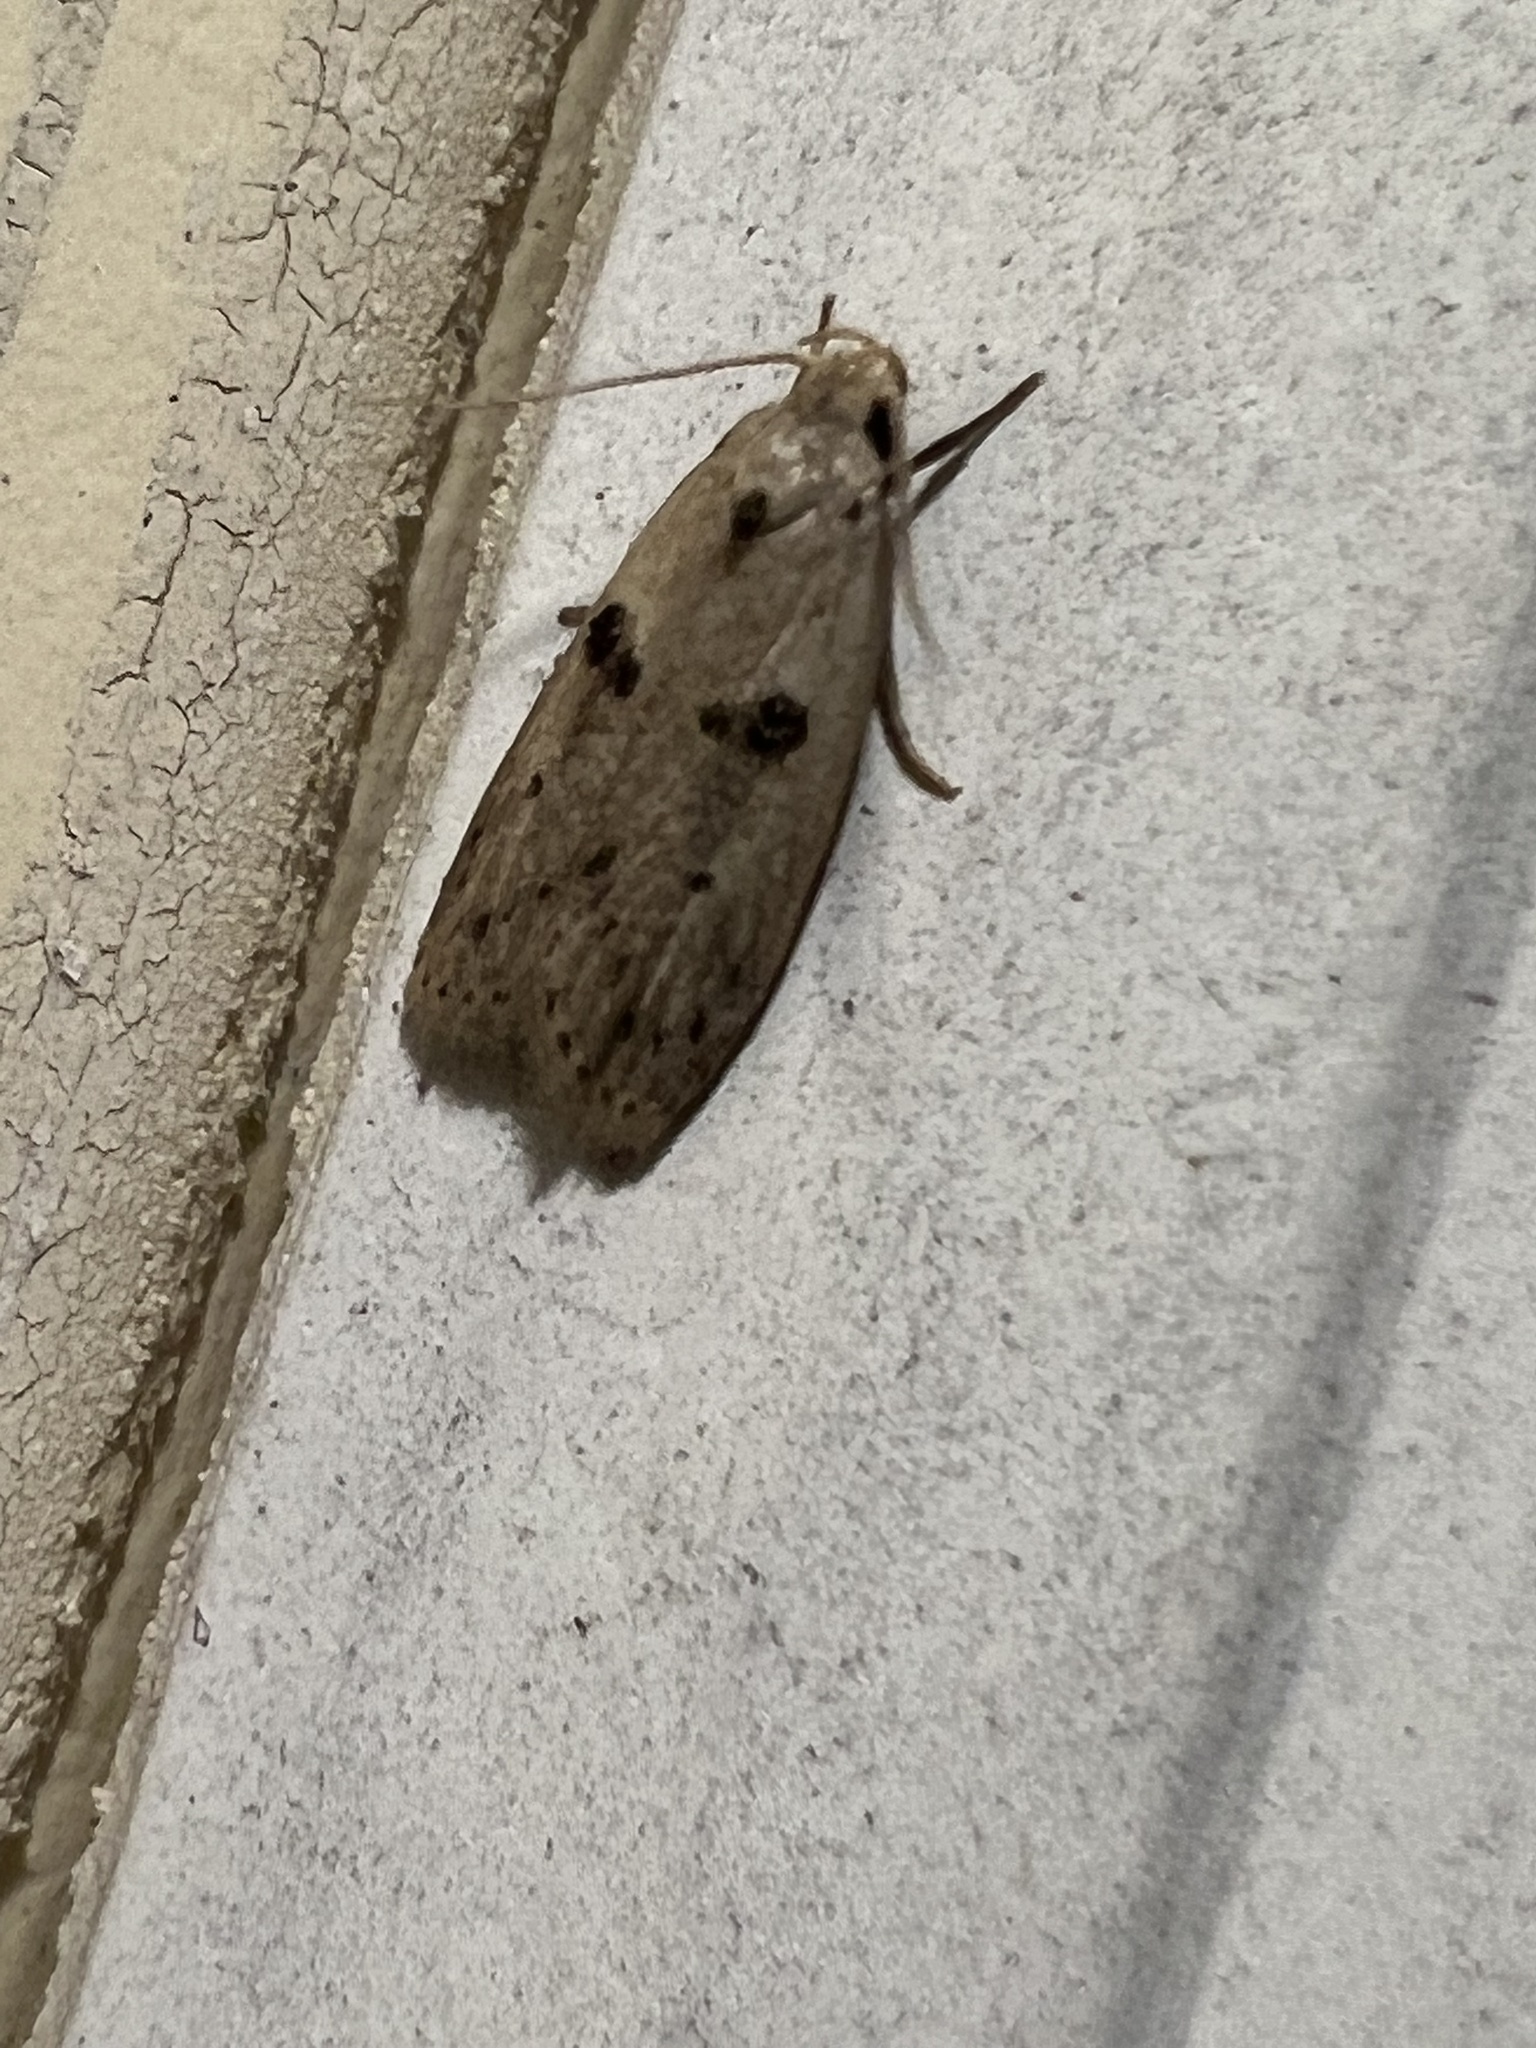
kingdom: Animalia
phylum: Arthropoda
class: Insecta
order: Lepidoptera
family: Peleopodidae
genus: Scythropiodes
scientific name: Scythropiodes issikii
